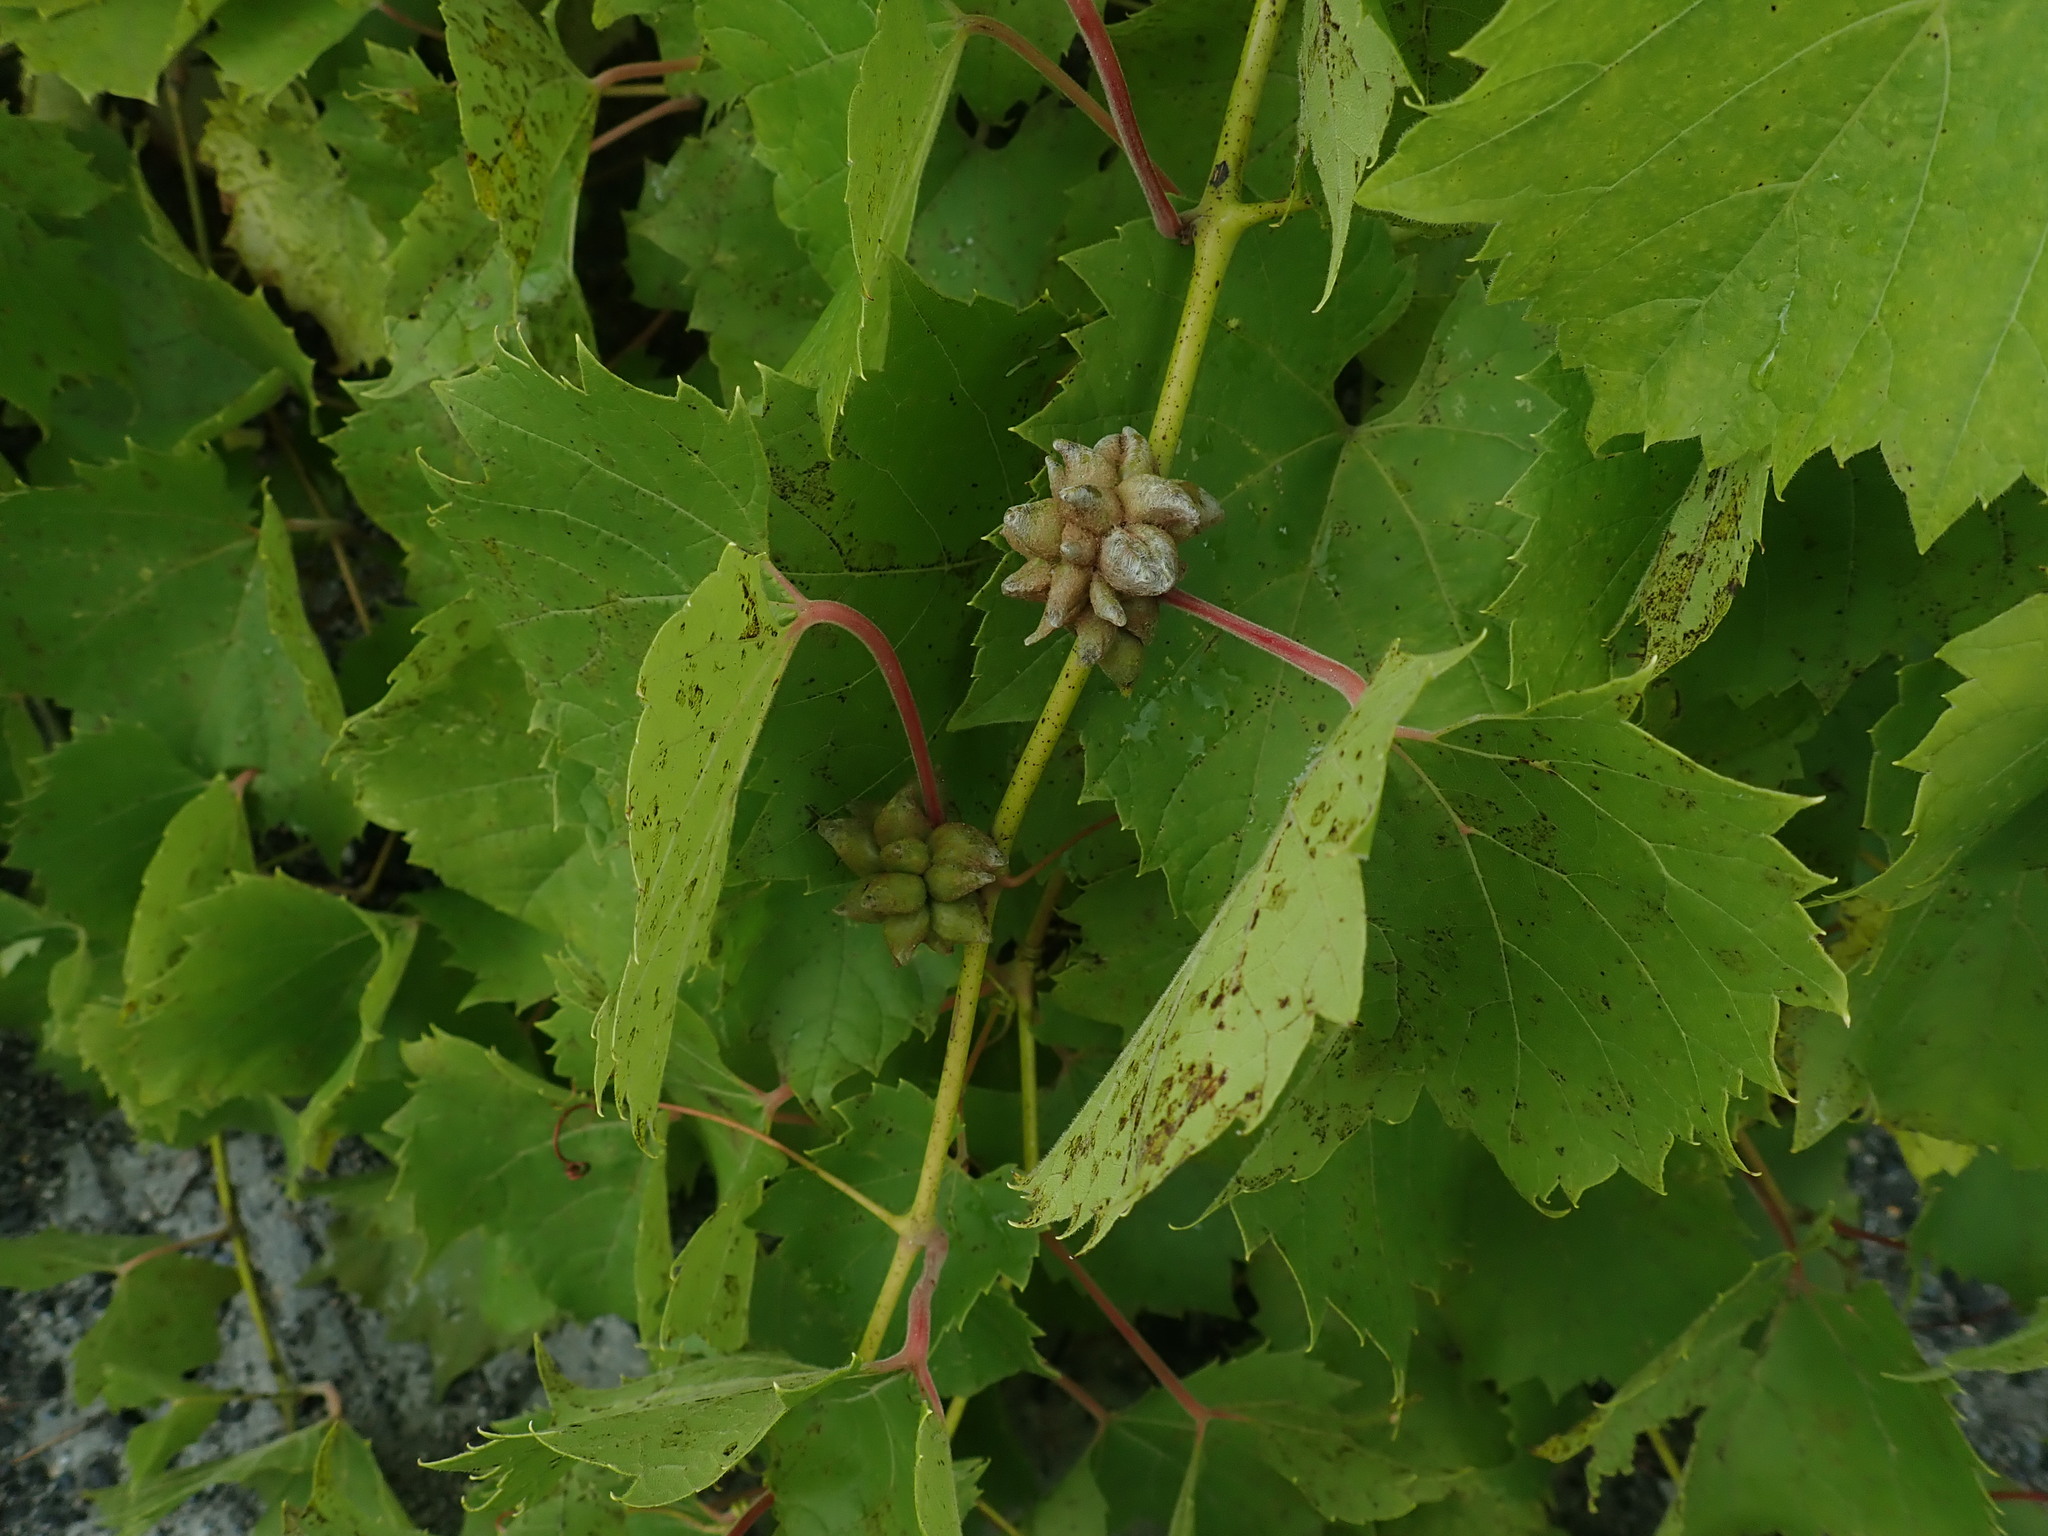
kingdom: Animalia
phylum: Arthropoda
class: Insecta
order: Diptera
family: Cecidomyiidae
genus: Ampelomyia
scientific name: Ampelomyia vitiscoryloides
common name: Grape filbert gall
